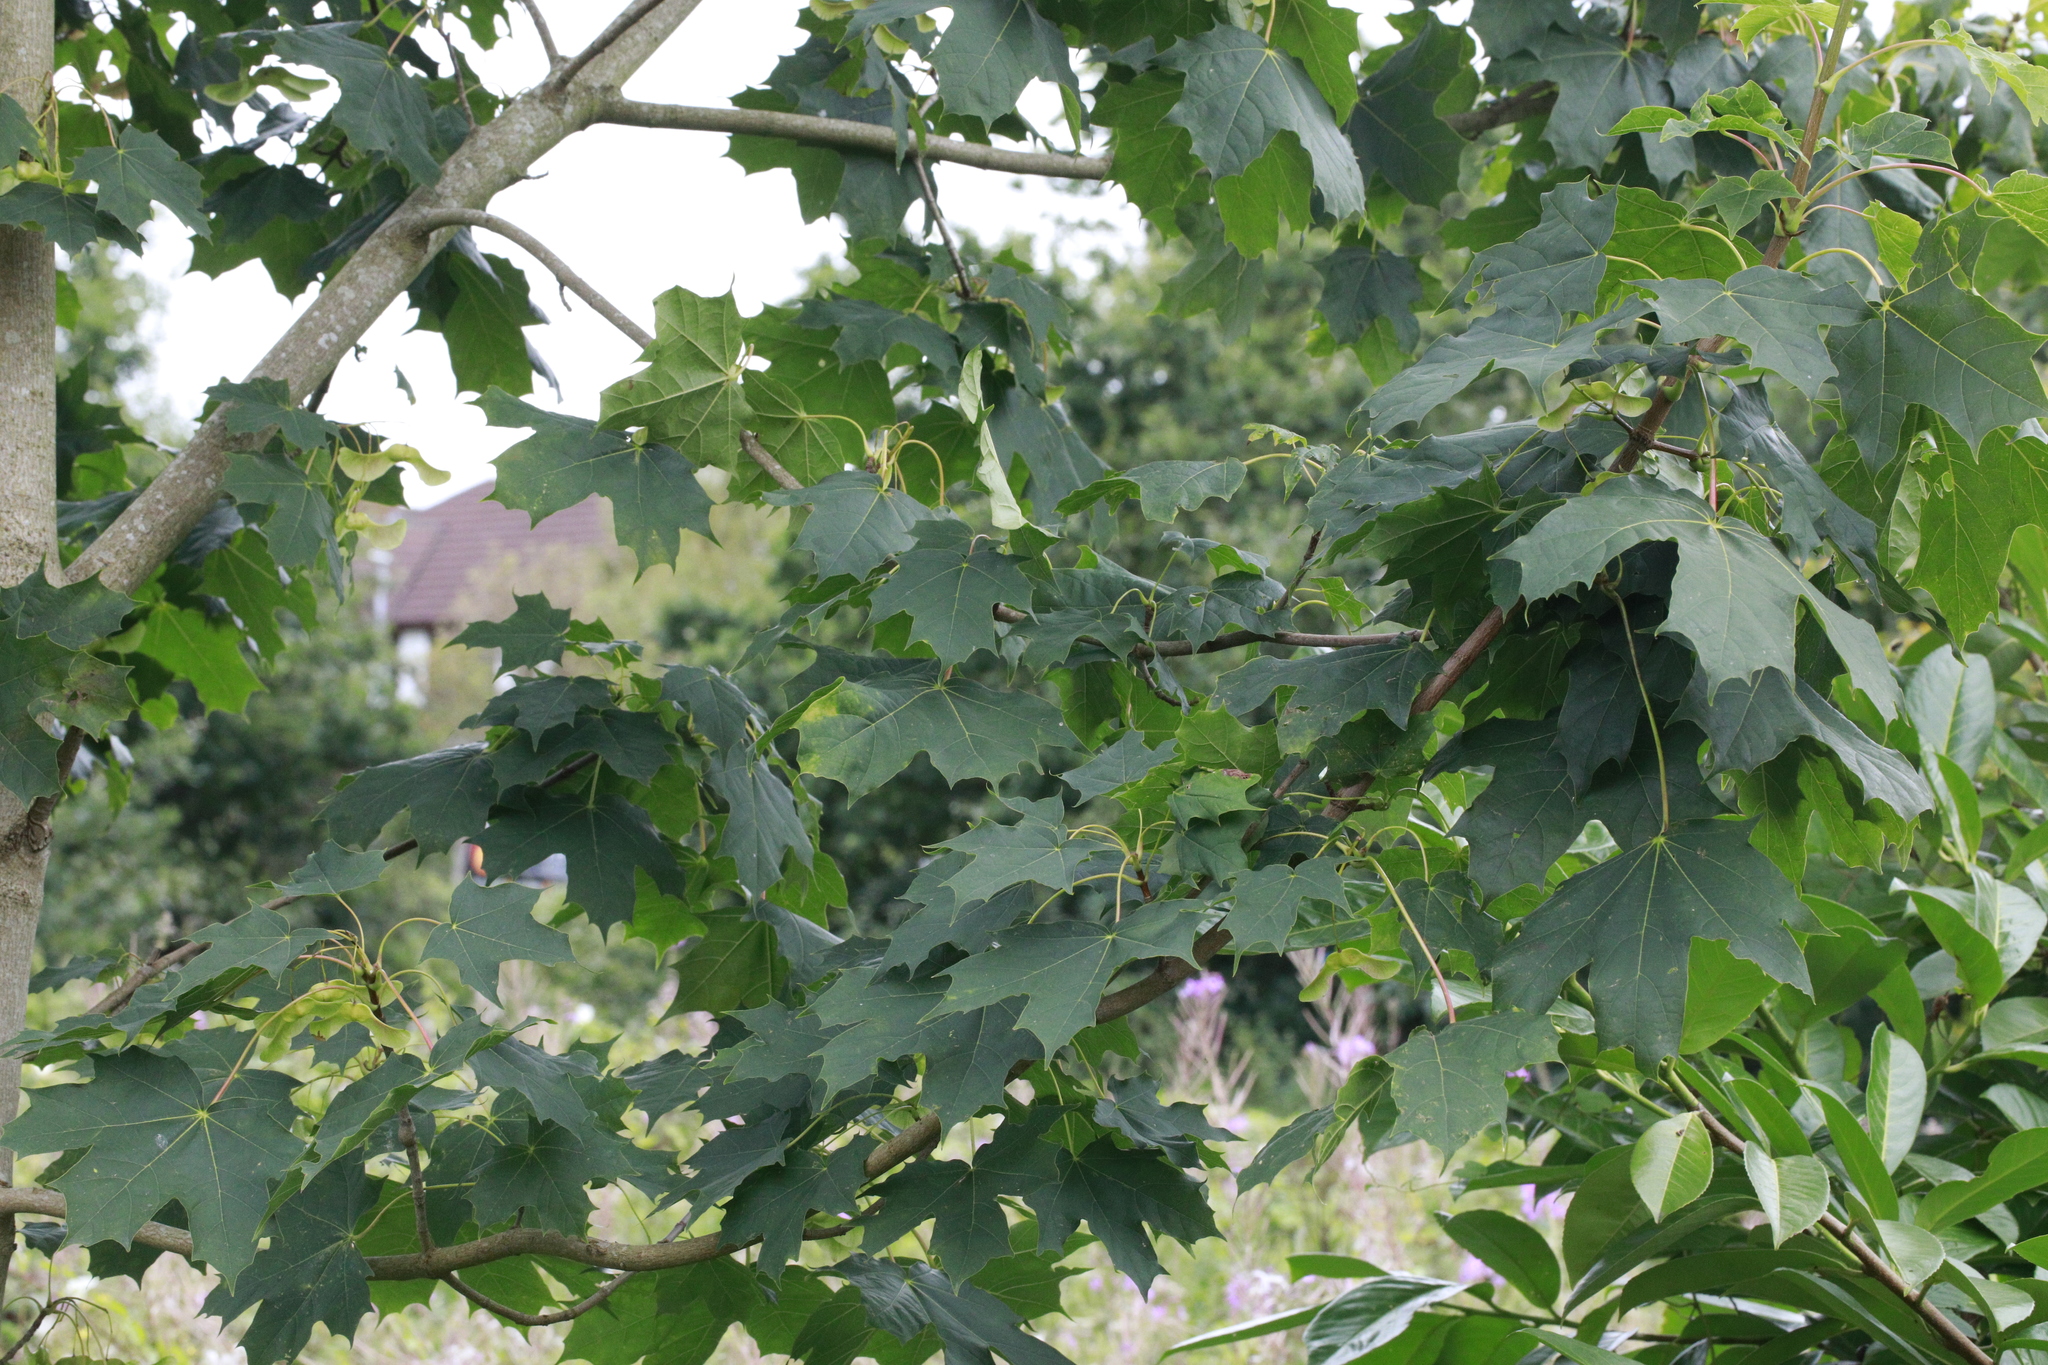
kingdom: Plantae
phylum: Tracheophyta
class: Magnoliopsida
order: Sapindales
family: Sapindaceae
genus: Acer
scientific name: Acer platanoides
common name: Norway maple
